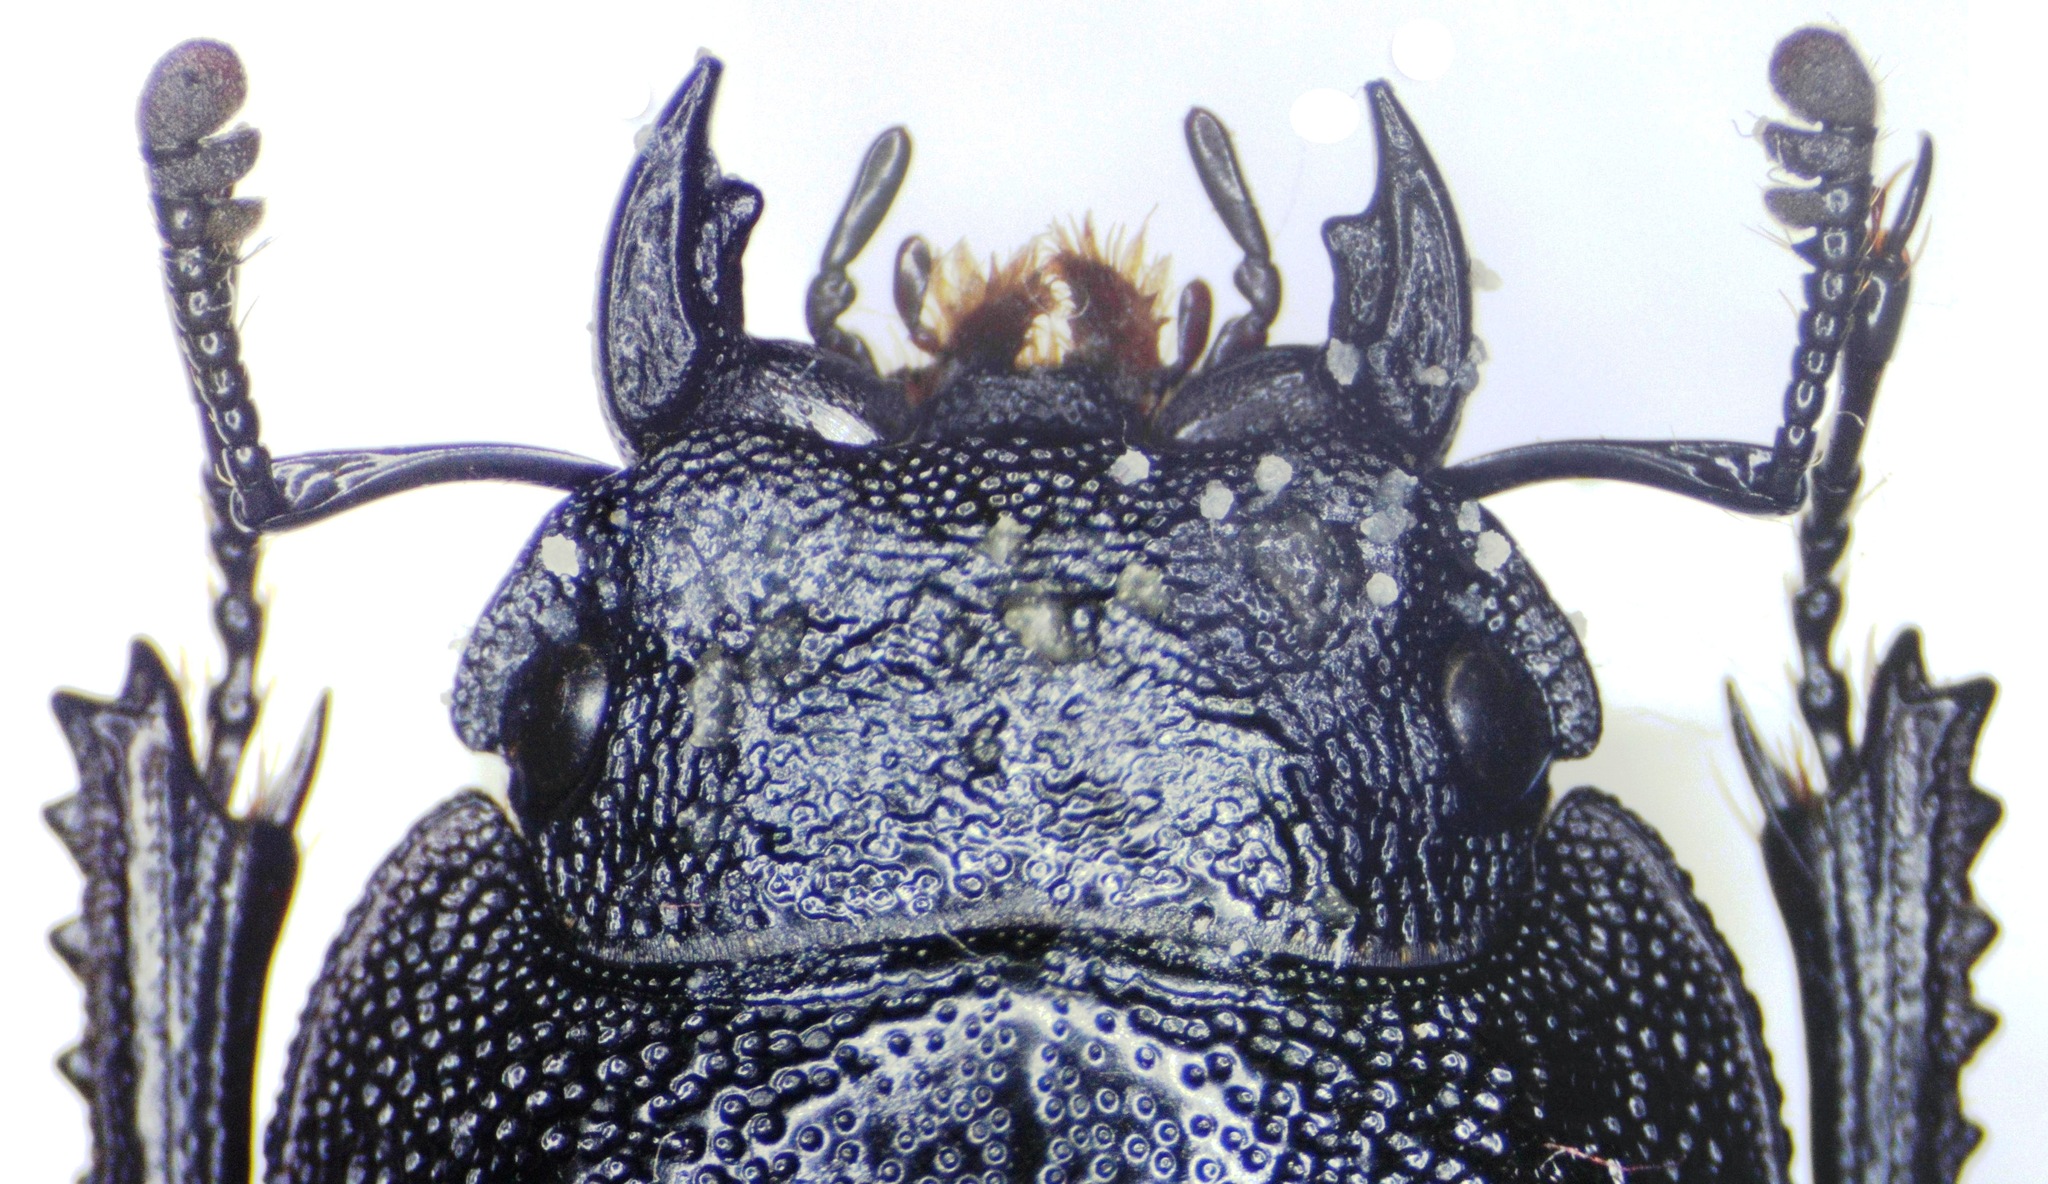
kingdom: Animalia
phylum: Arthropoda
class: Insecta
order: Coleoptera
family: Lucanidae
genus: Serrognathus
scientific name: Serrognathus costatus
